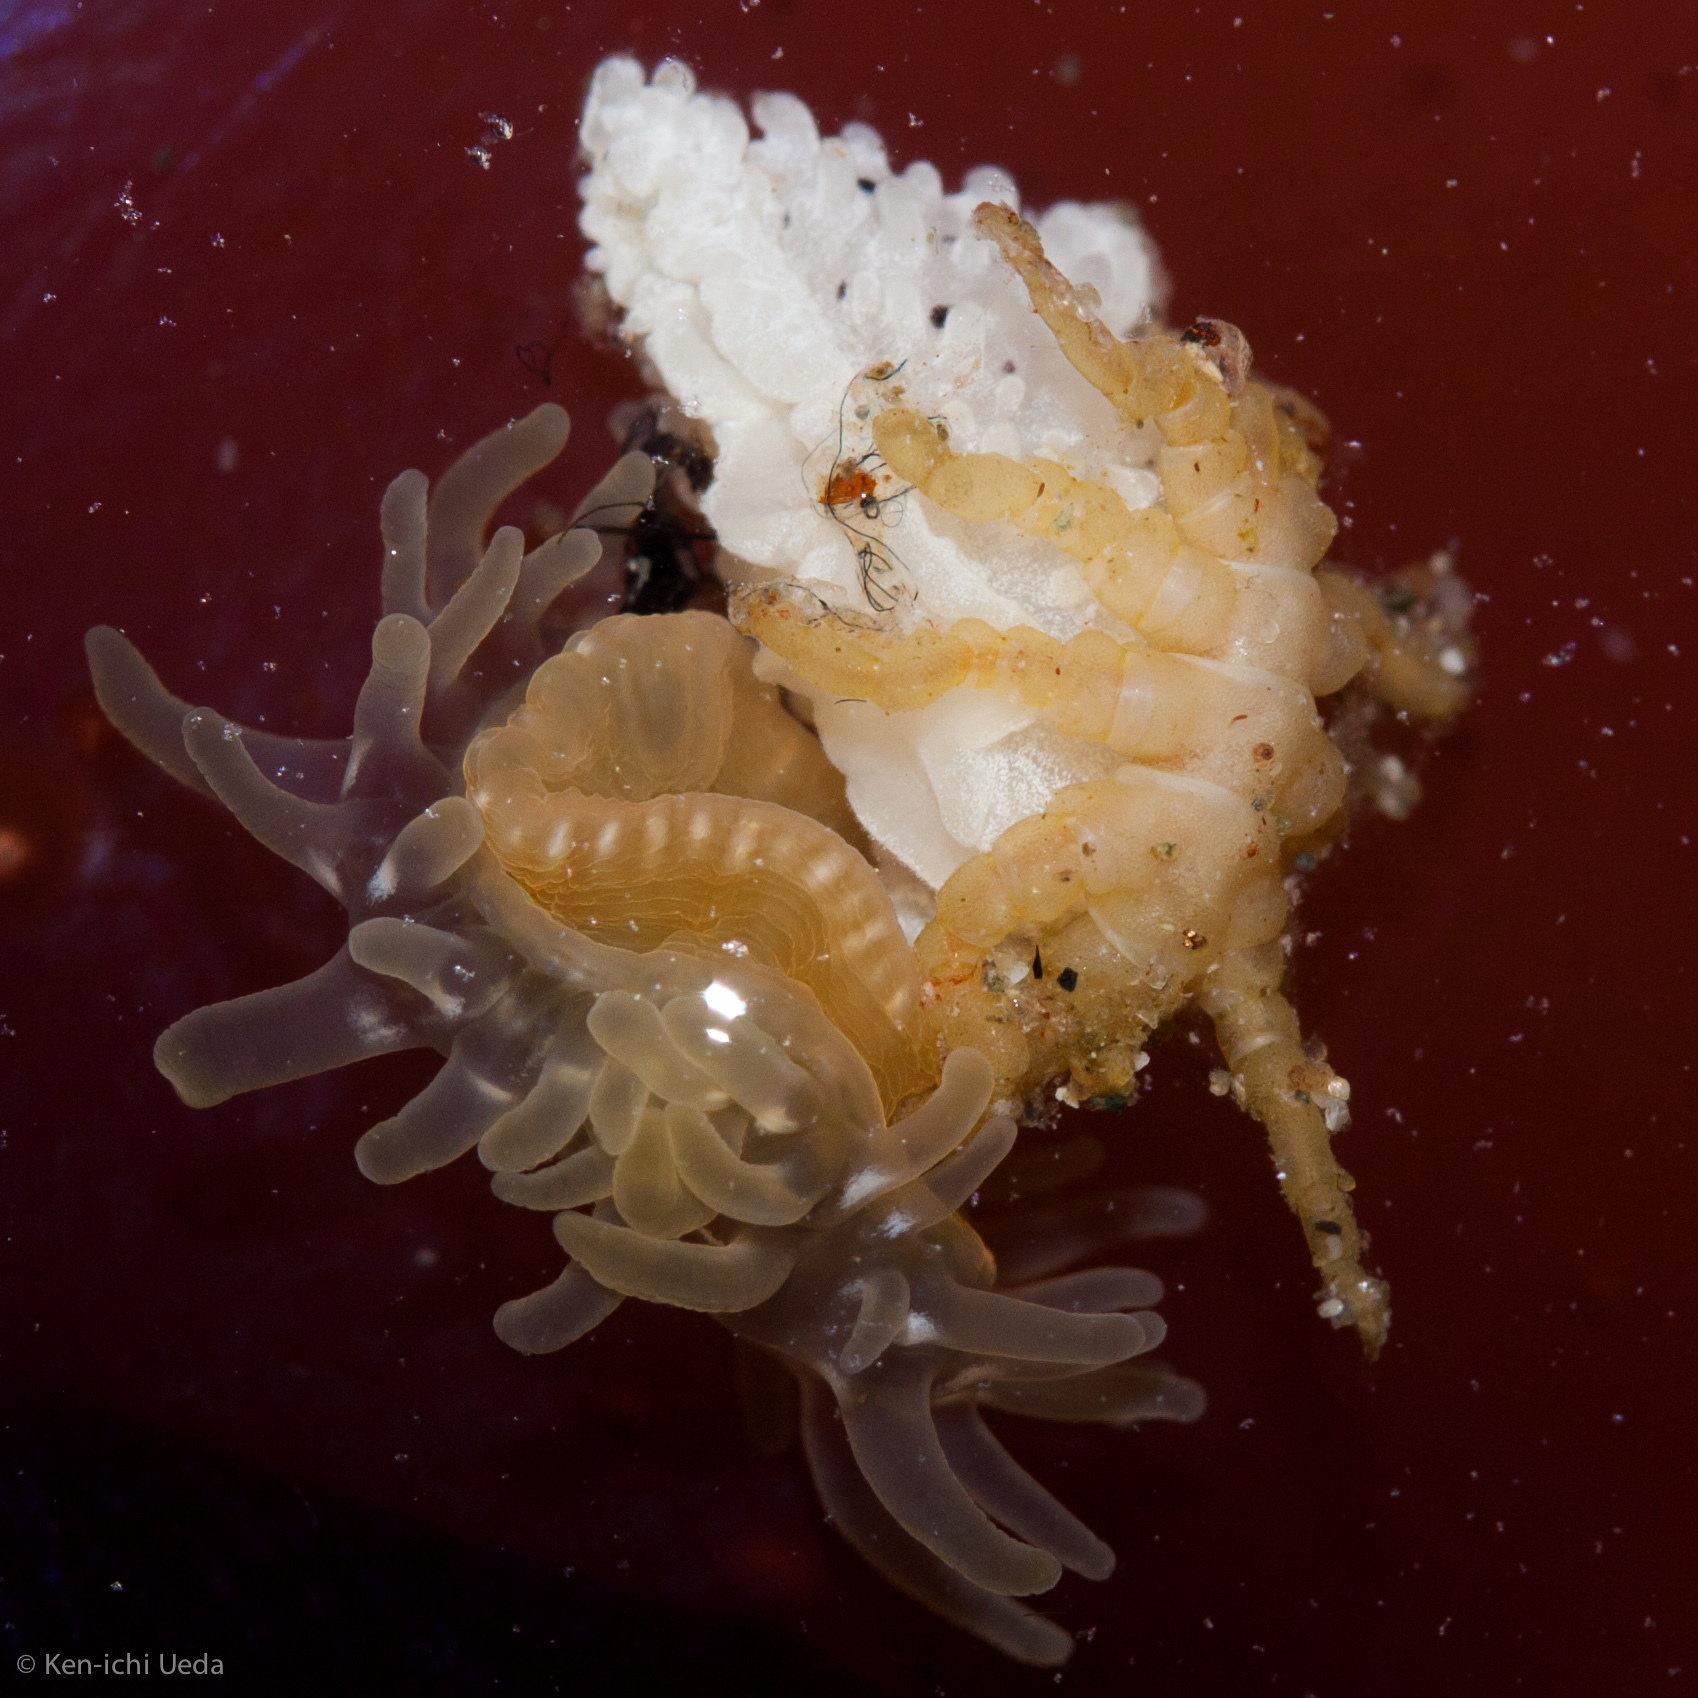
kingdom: Animalia
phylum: Arthropoda
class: Pycnogonida
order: Pantopoda
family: Pycnogonidae
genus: Pycnogonum
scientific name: Pycnogonum stearnsi
